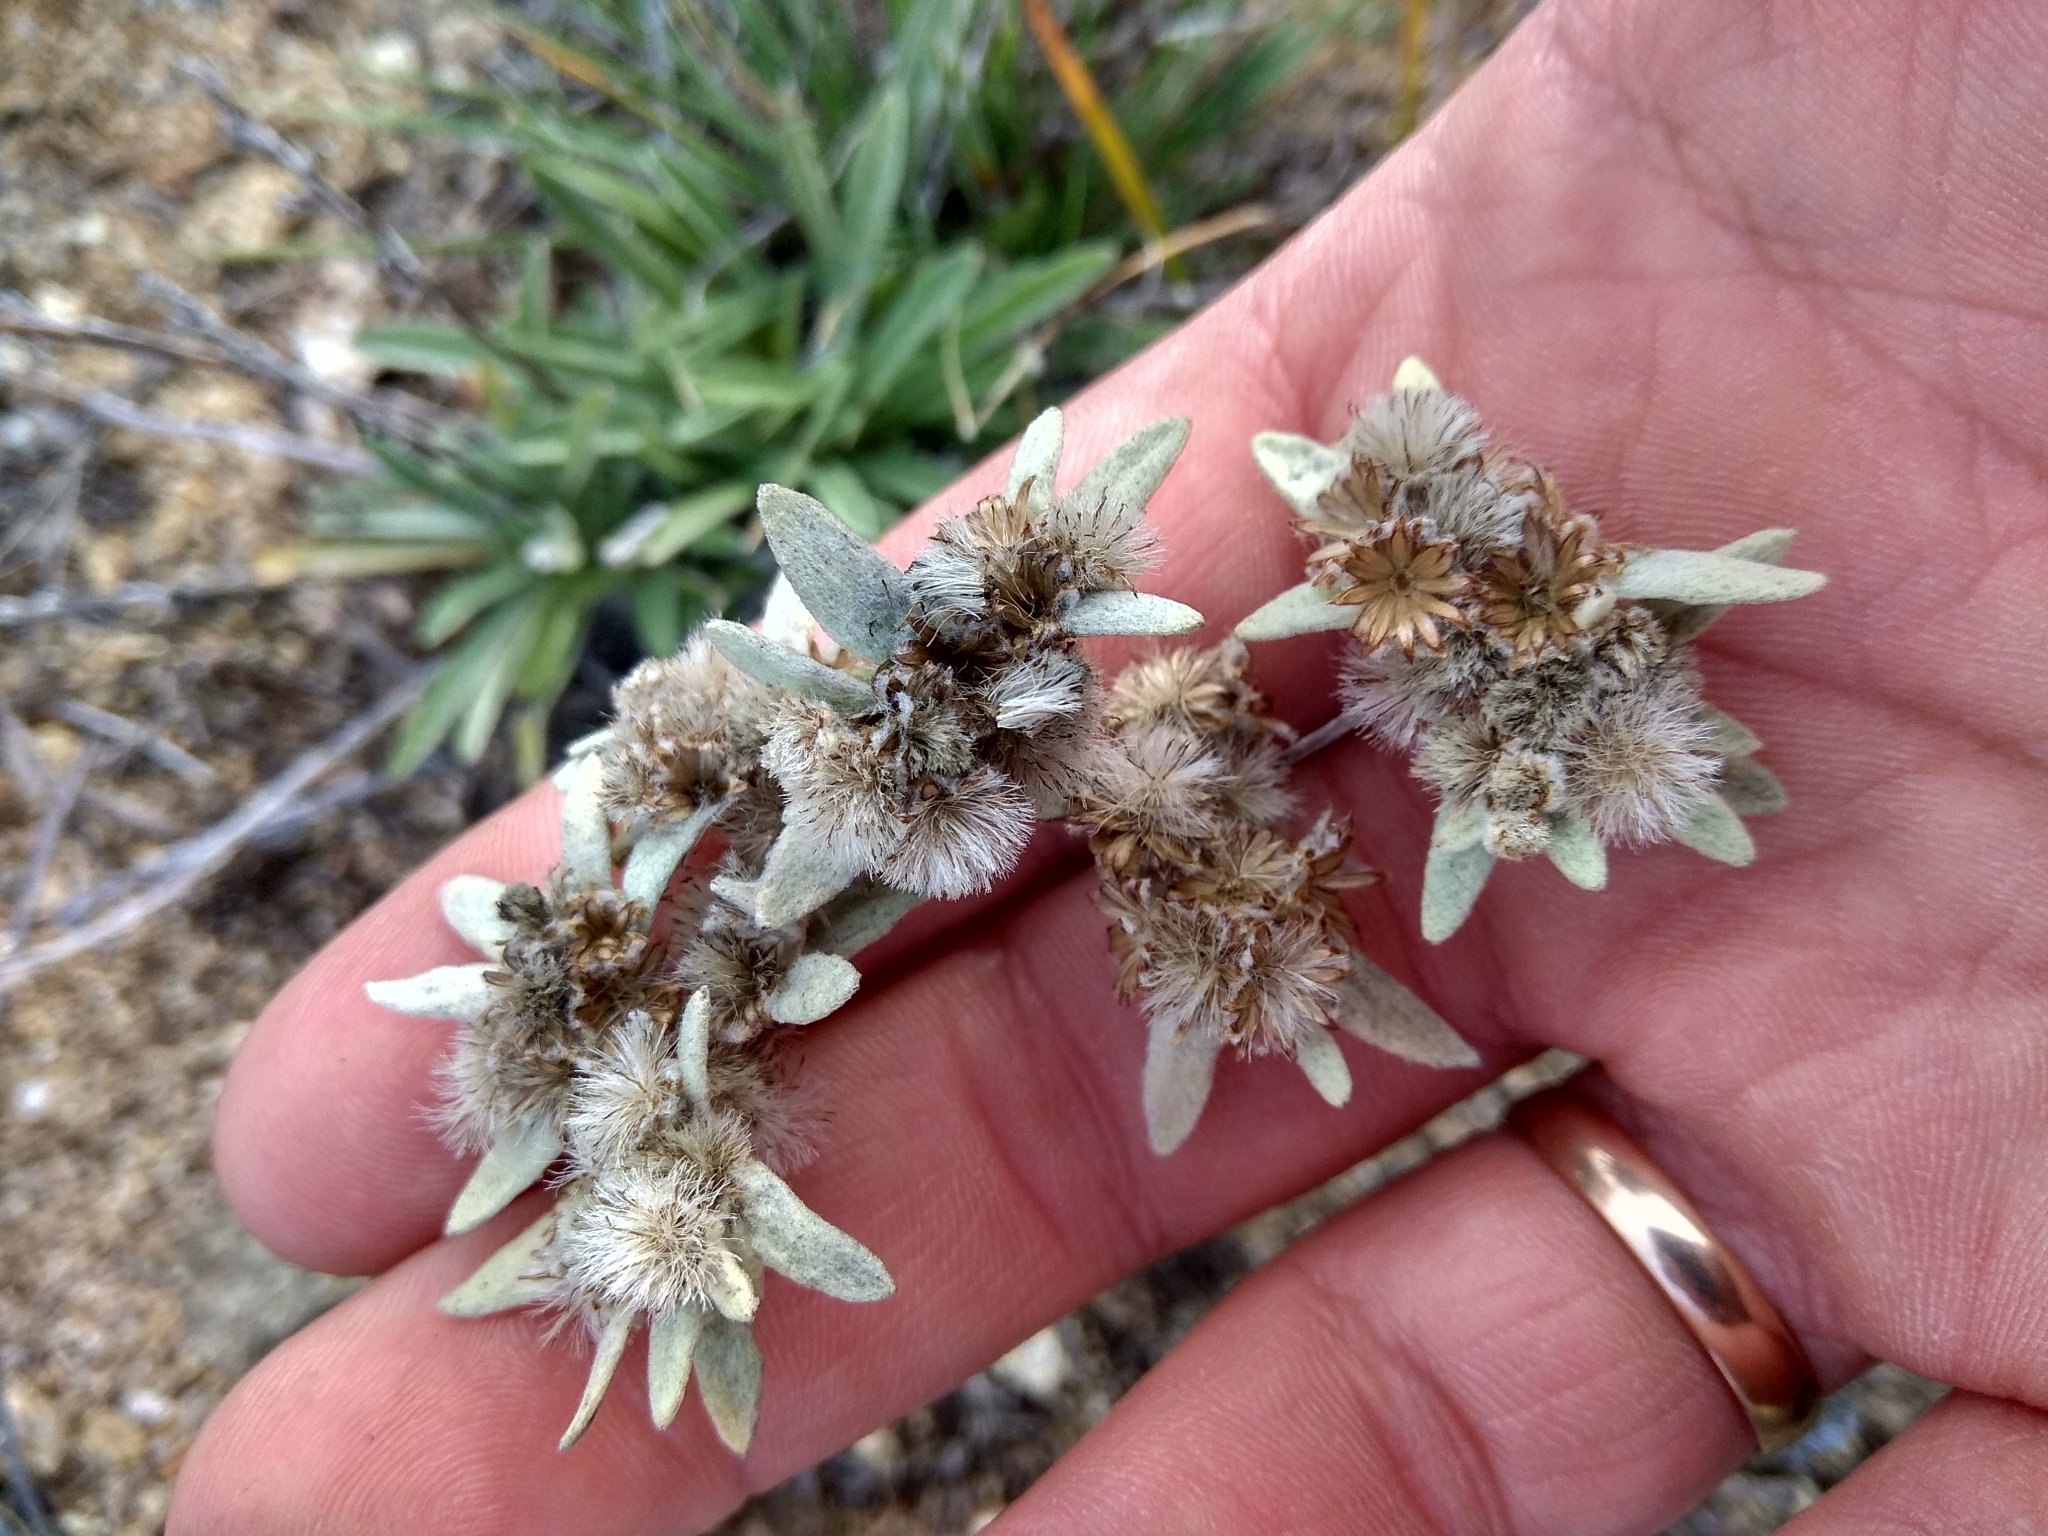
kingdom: Plantae
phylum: Tracheophyta
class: Magnoliopsida
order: Asterales
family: Asteraceae
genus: Leontopodium
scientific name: Leontopodium leontopodinum
